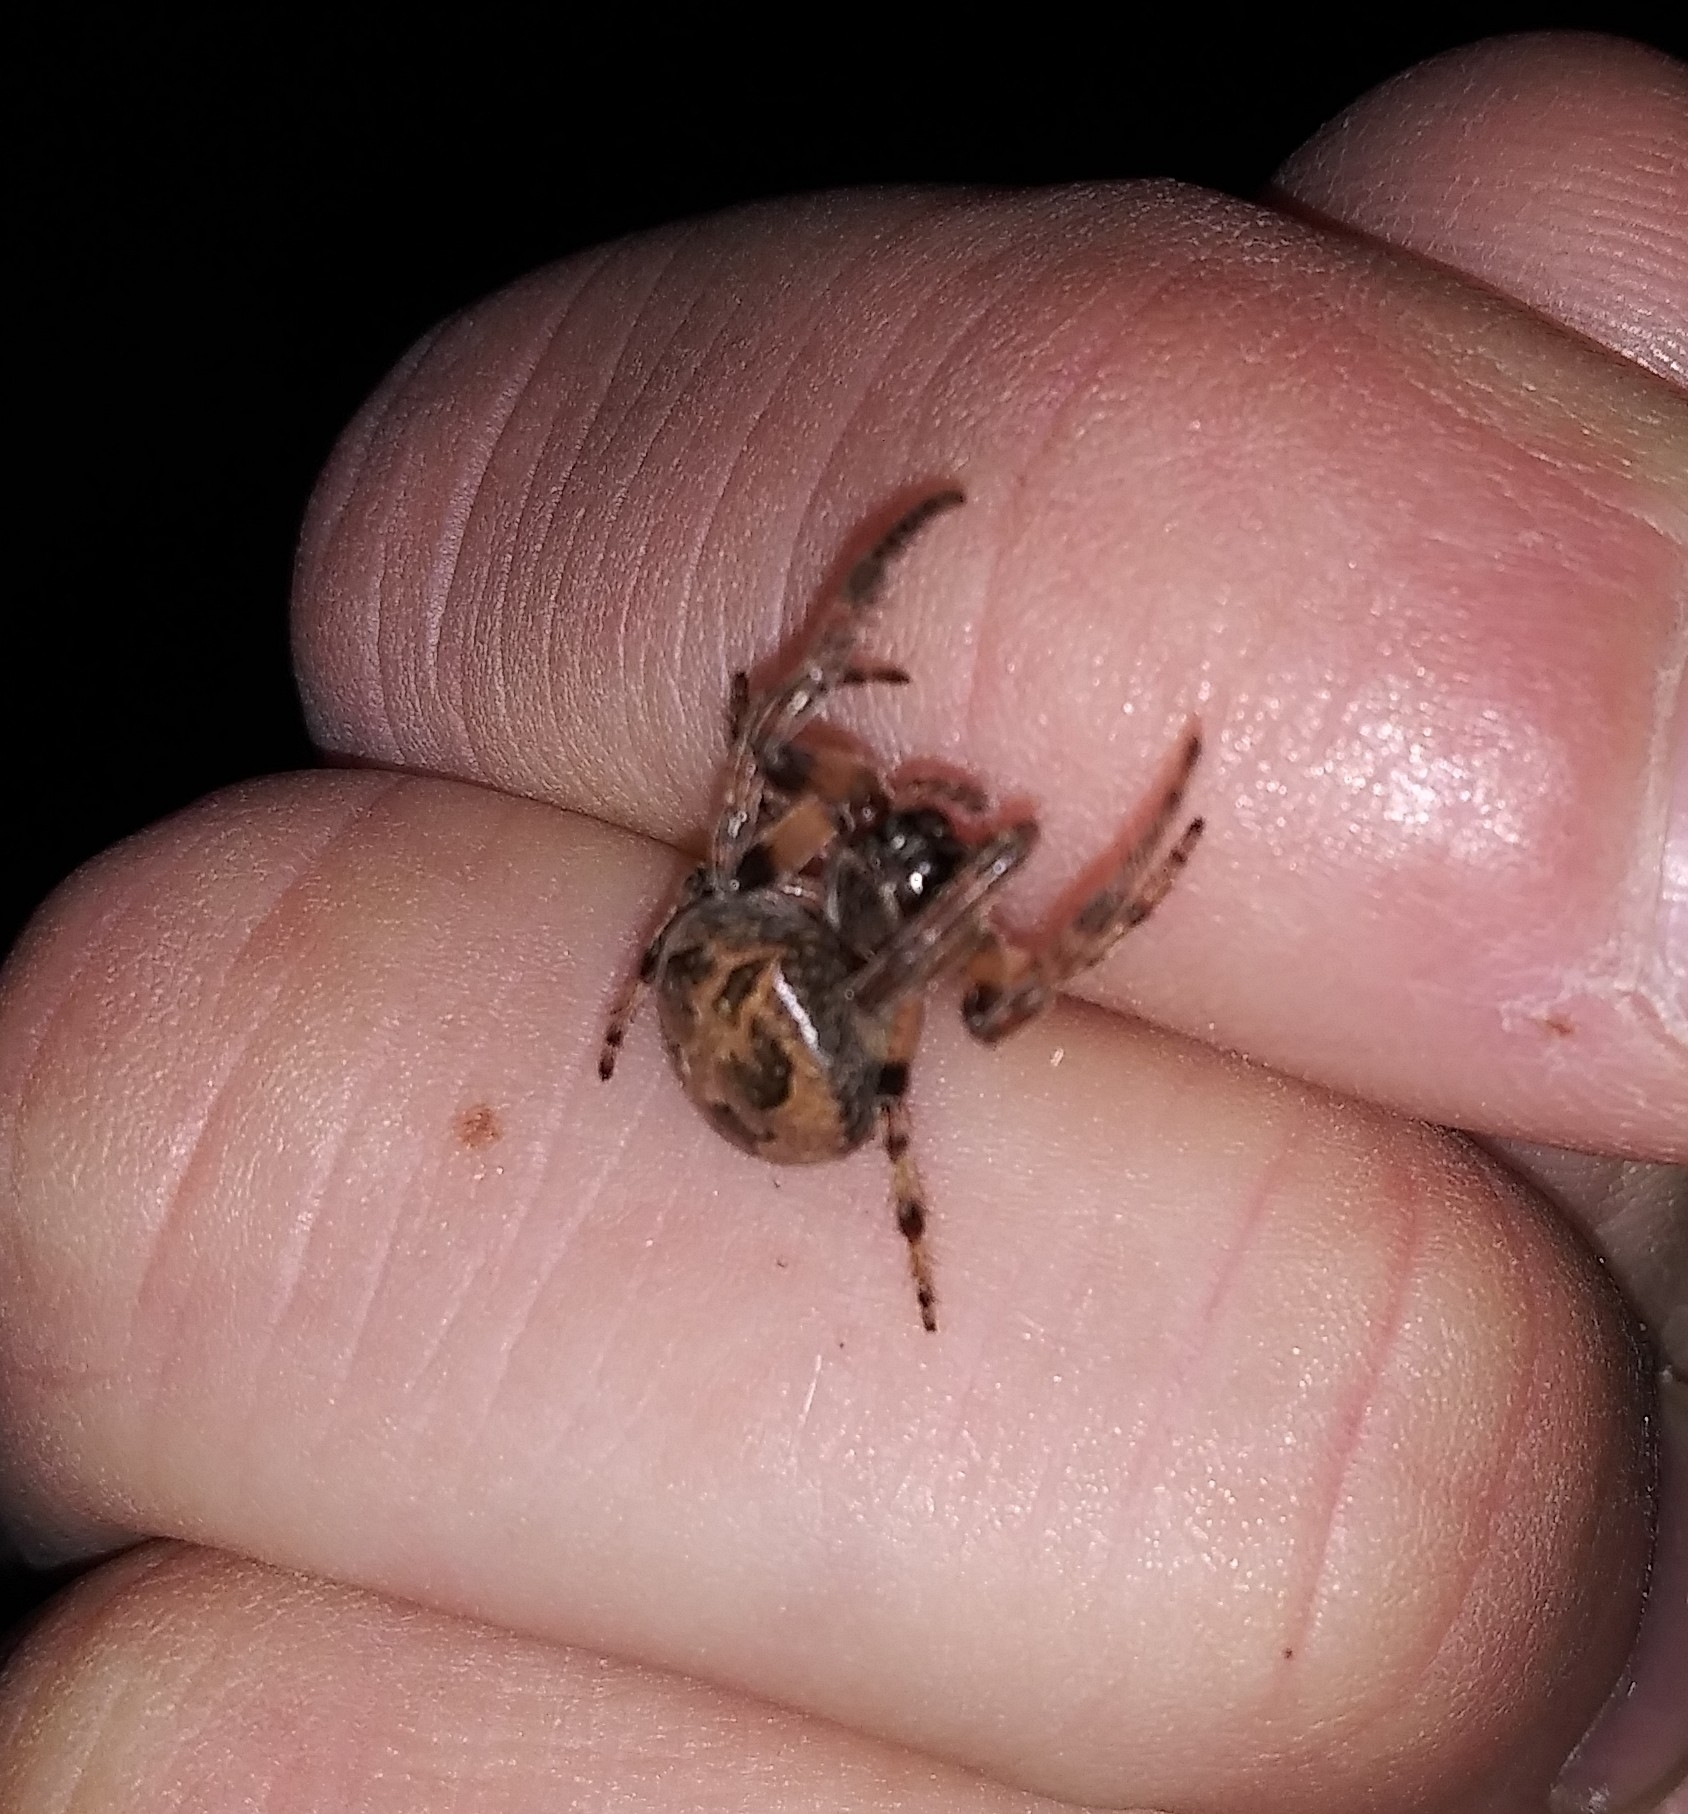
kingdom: Animalia
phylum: Arthropoda
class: Arachnida
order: Araneae
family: Araneidae
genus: Larinioides
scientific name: Larinioides cornutus
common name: Furrow orbweaver
